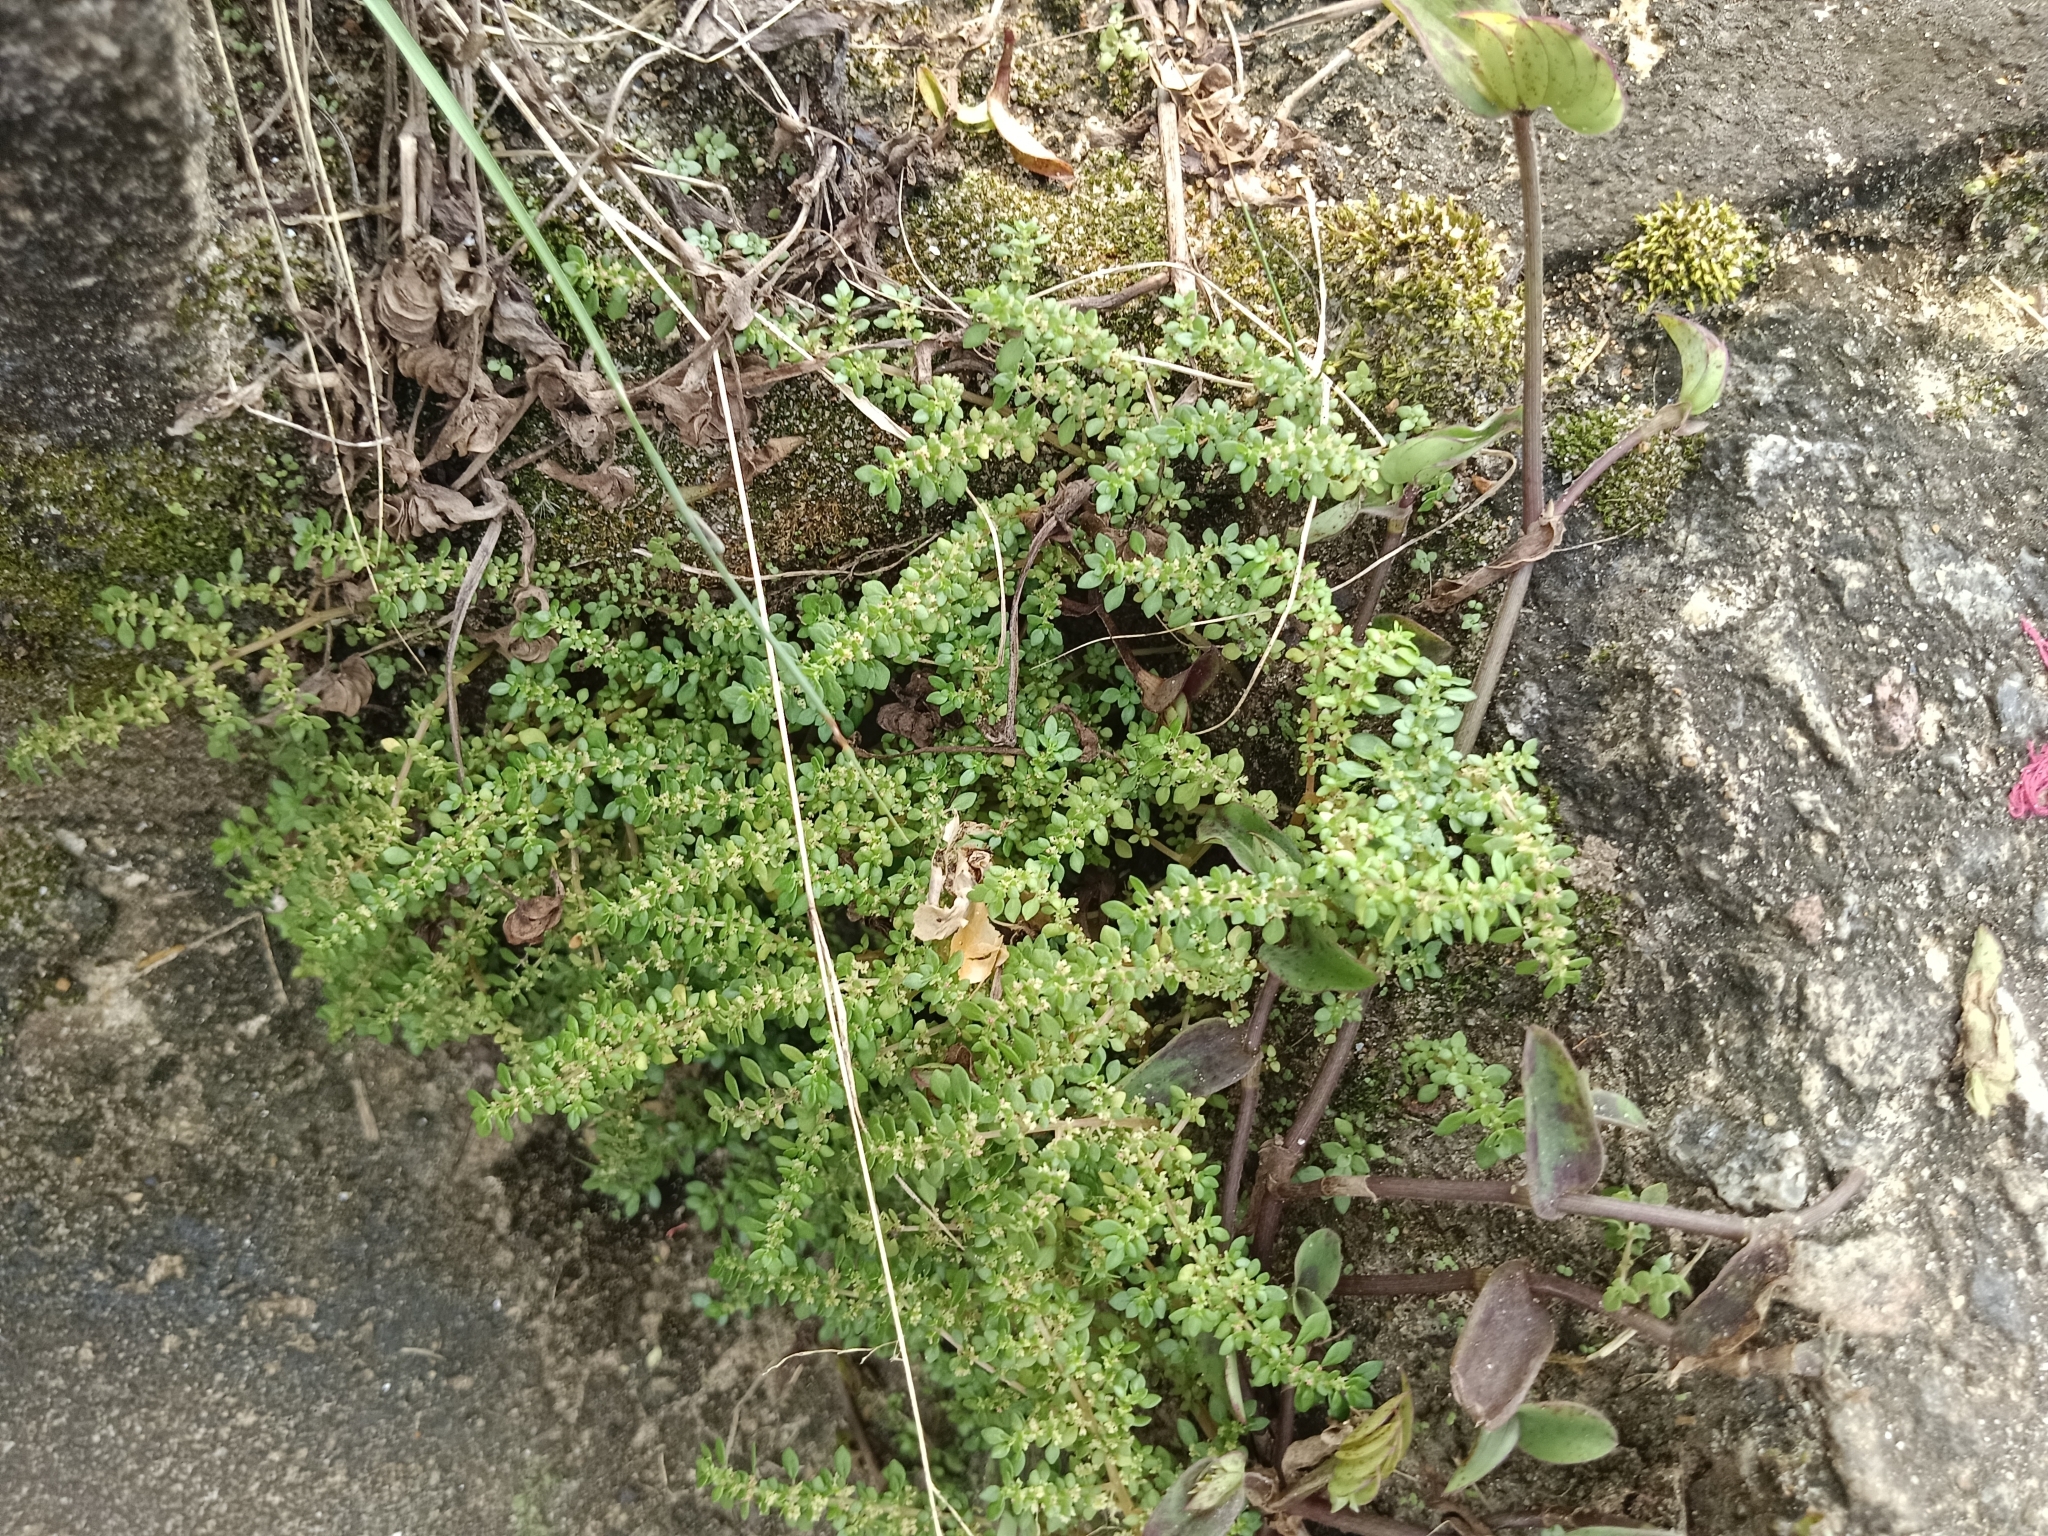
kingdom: Plantae
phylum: Tracheophyta
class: Magnoliopsida
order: Rosales
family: Urticaceae
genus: Pilea
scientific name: Pilea microphylla
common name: Artillery-plant
